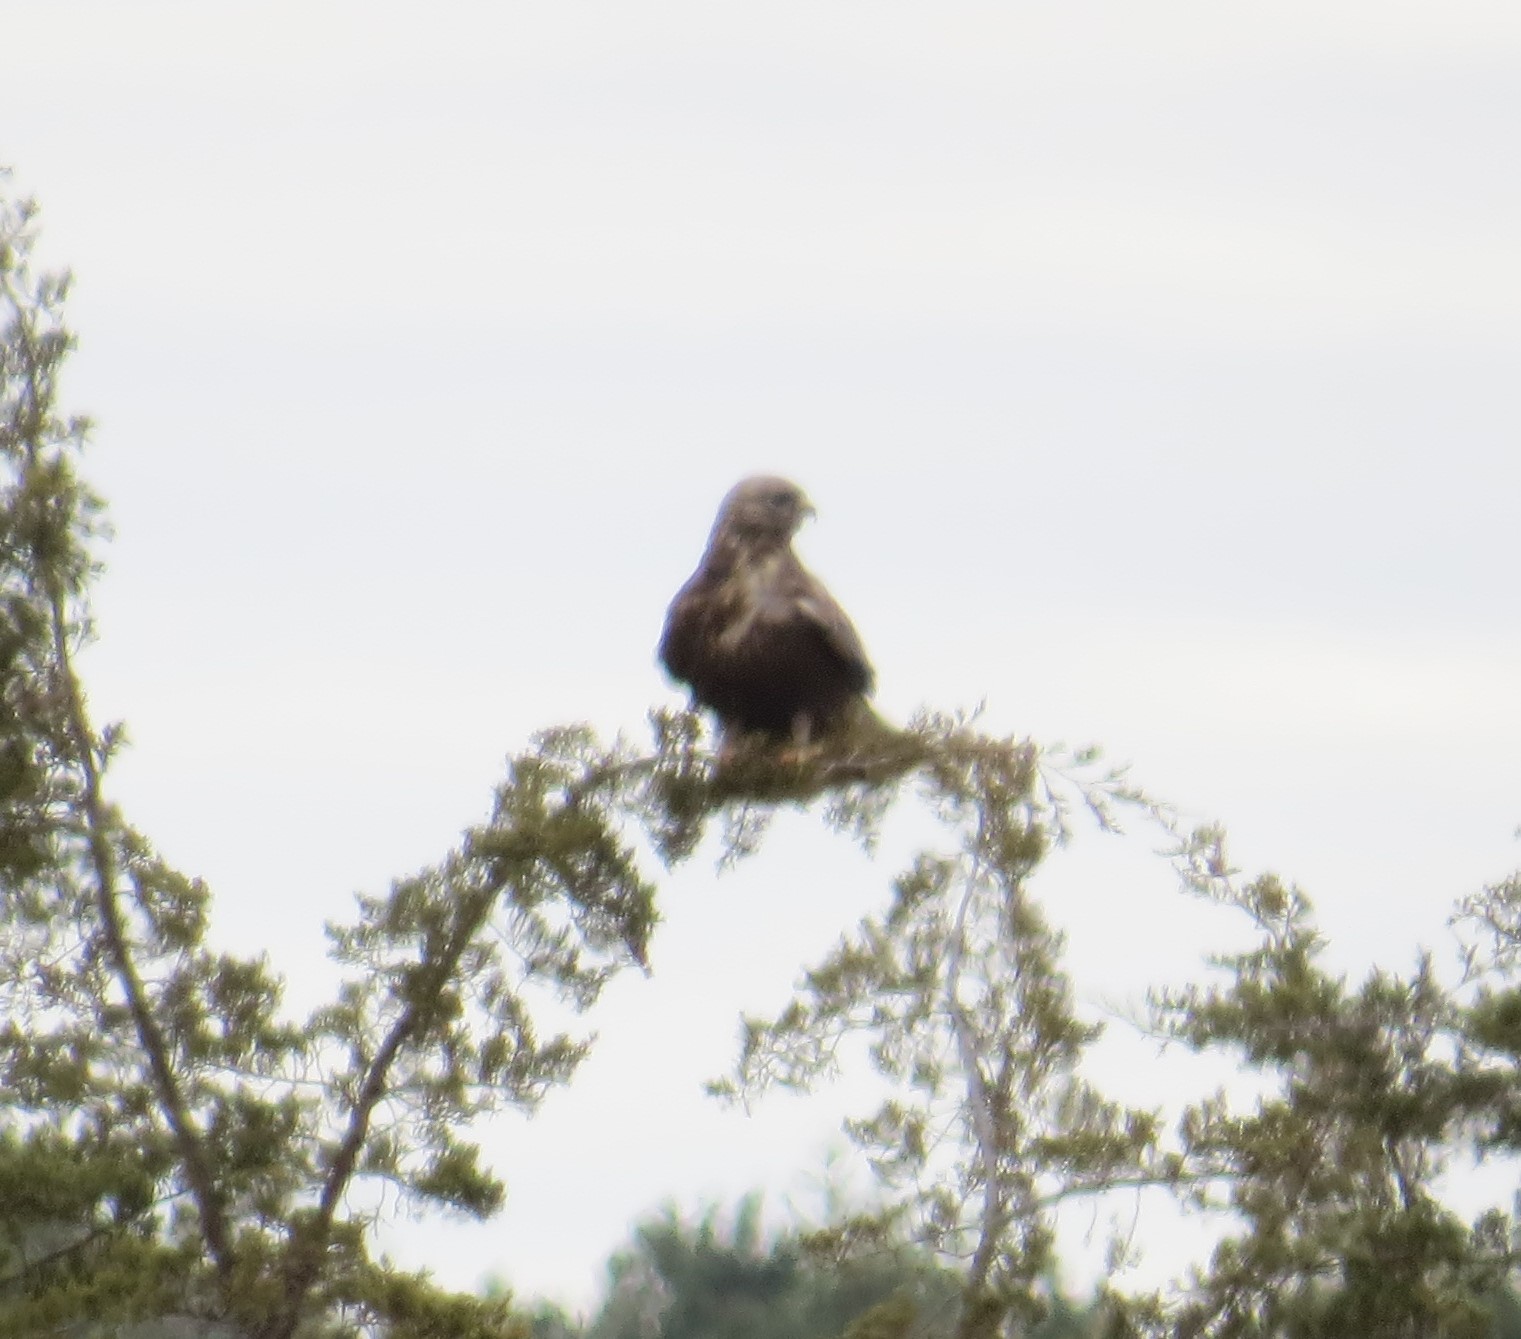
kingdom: Animalia
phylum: Chordata
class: Aves
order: Accipitriformes
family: Accipitridae
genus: Buteo
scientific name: Buteo lagopus
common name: Rough-legged buzzard
